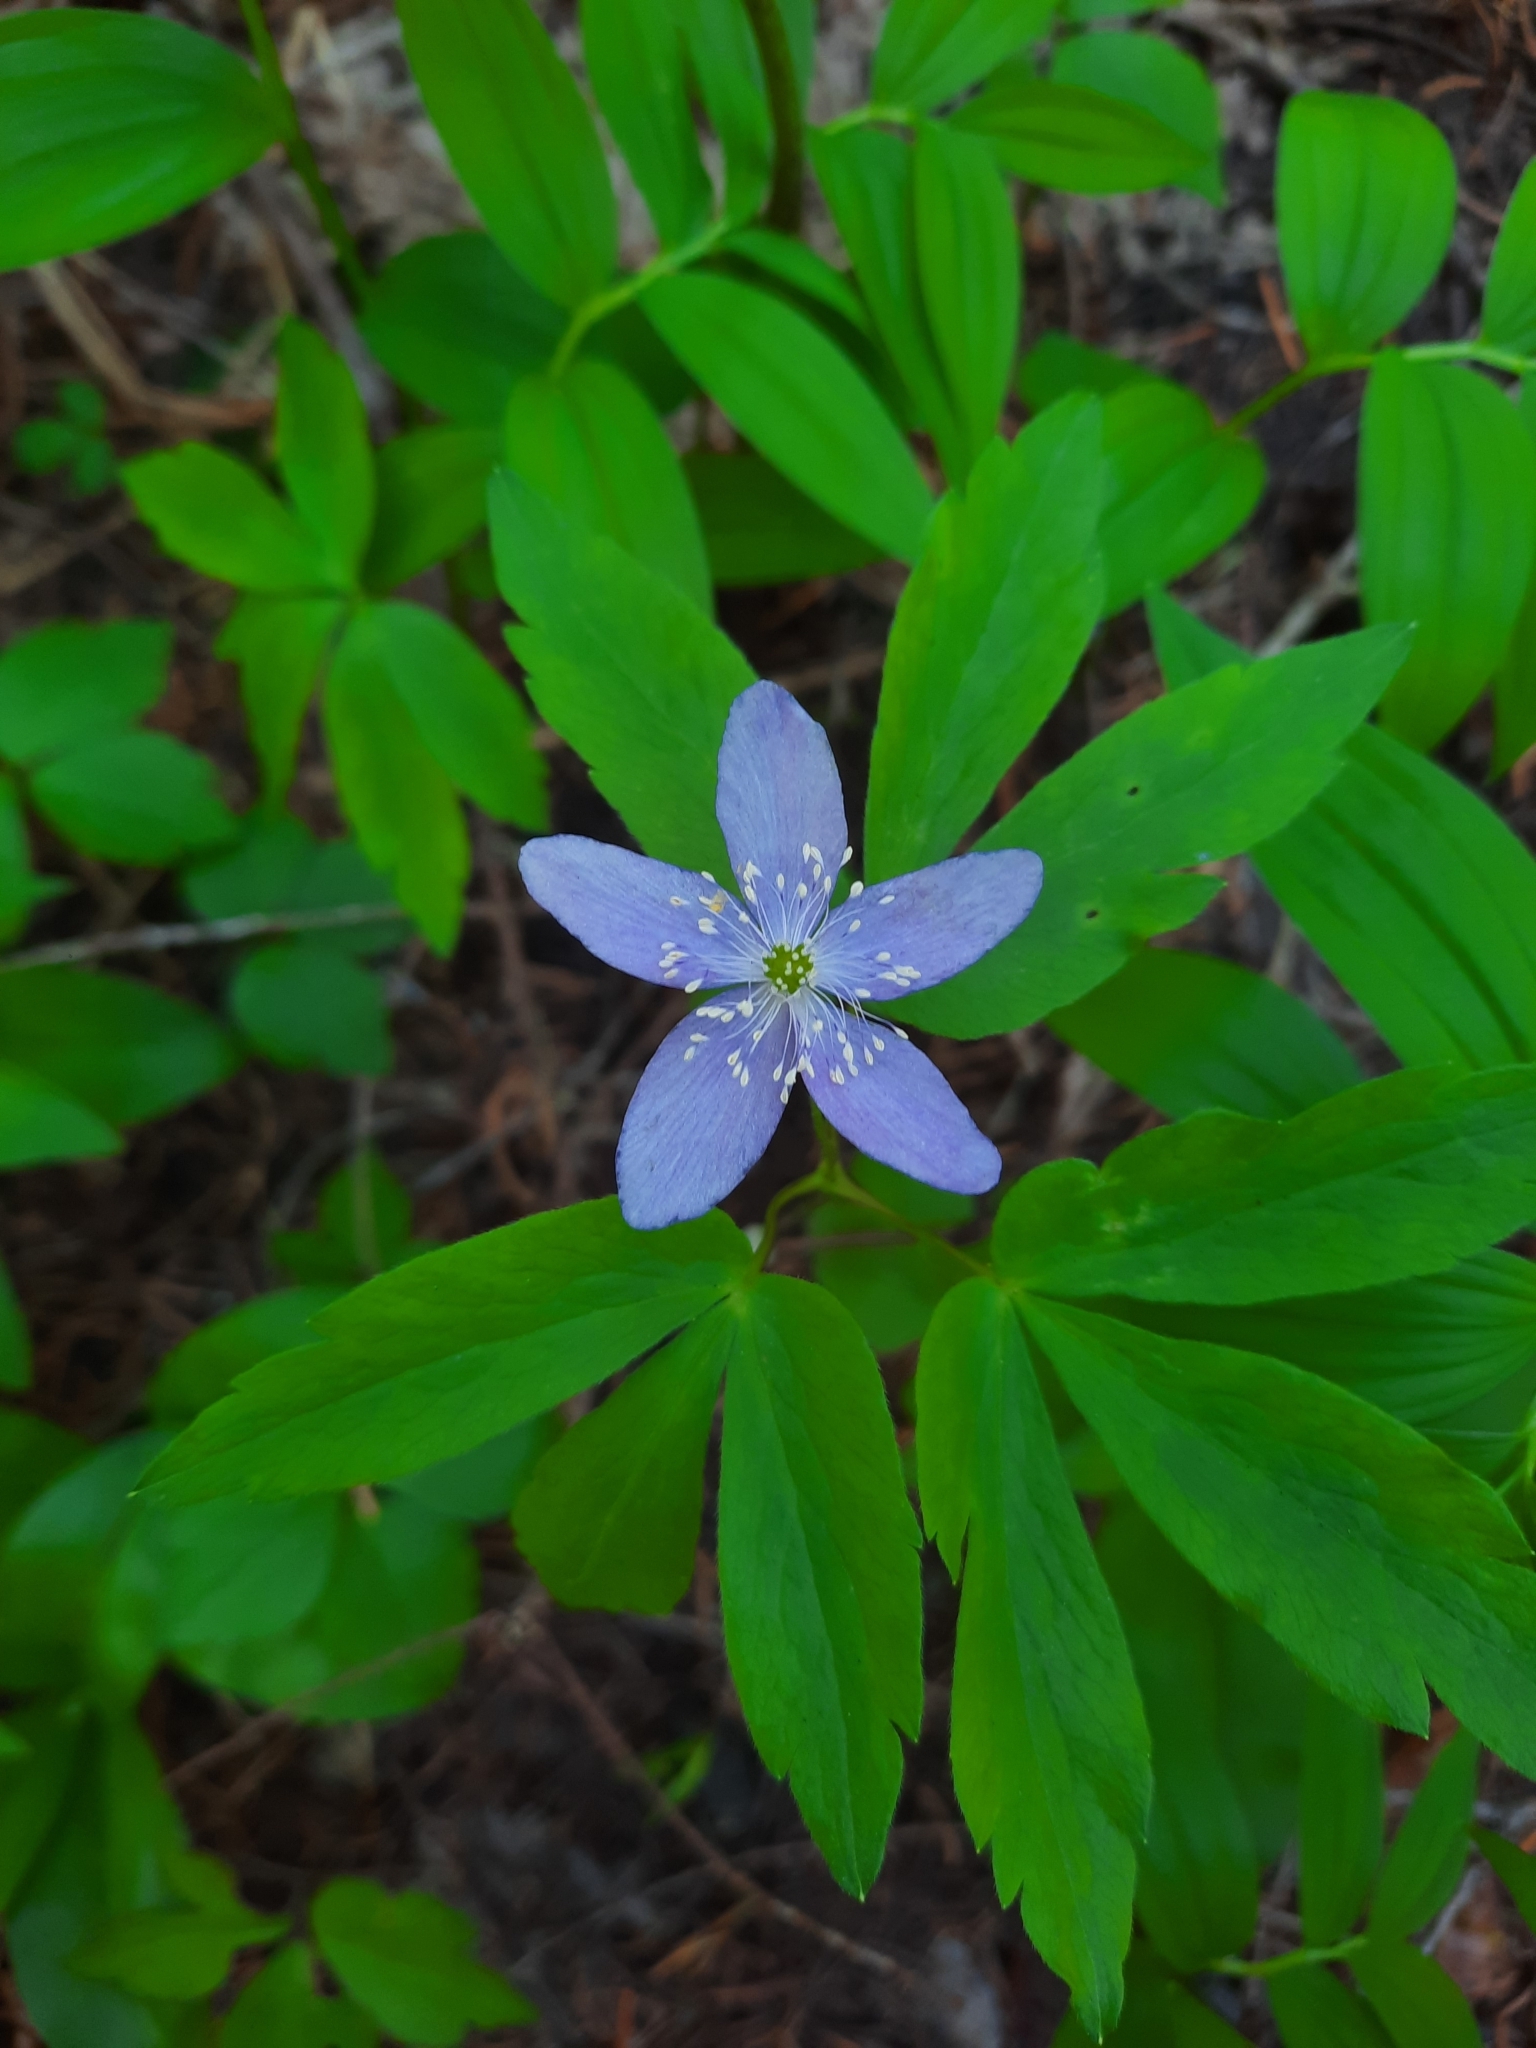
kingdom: Plantae
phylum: Tracheophyta
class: Magnoliopsida
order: Ranunculales
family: Ranunculaceae
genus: Anemone
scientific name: Anemone oregana
